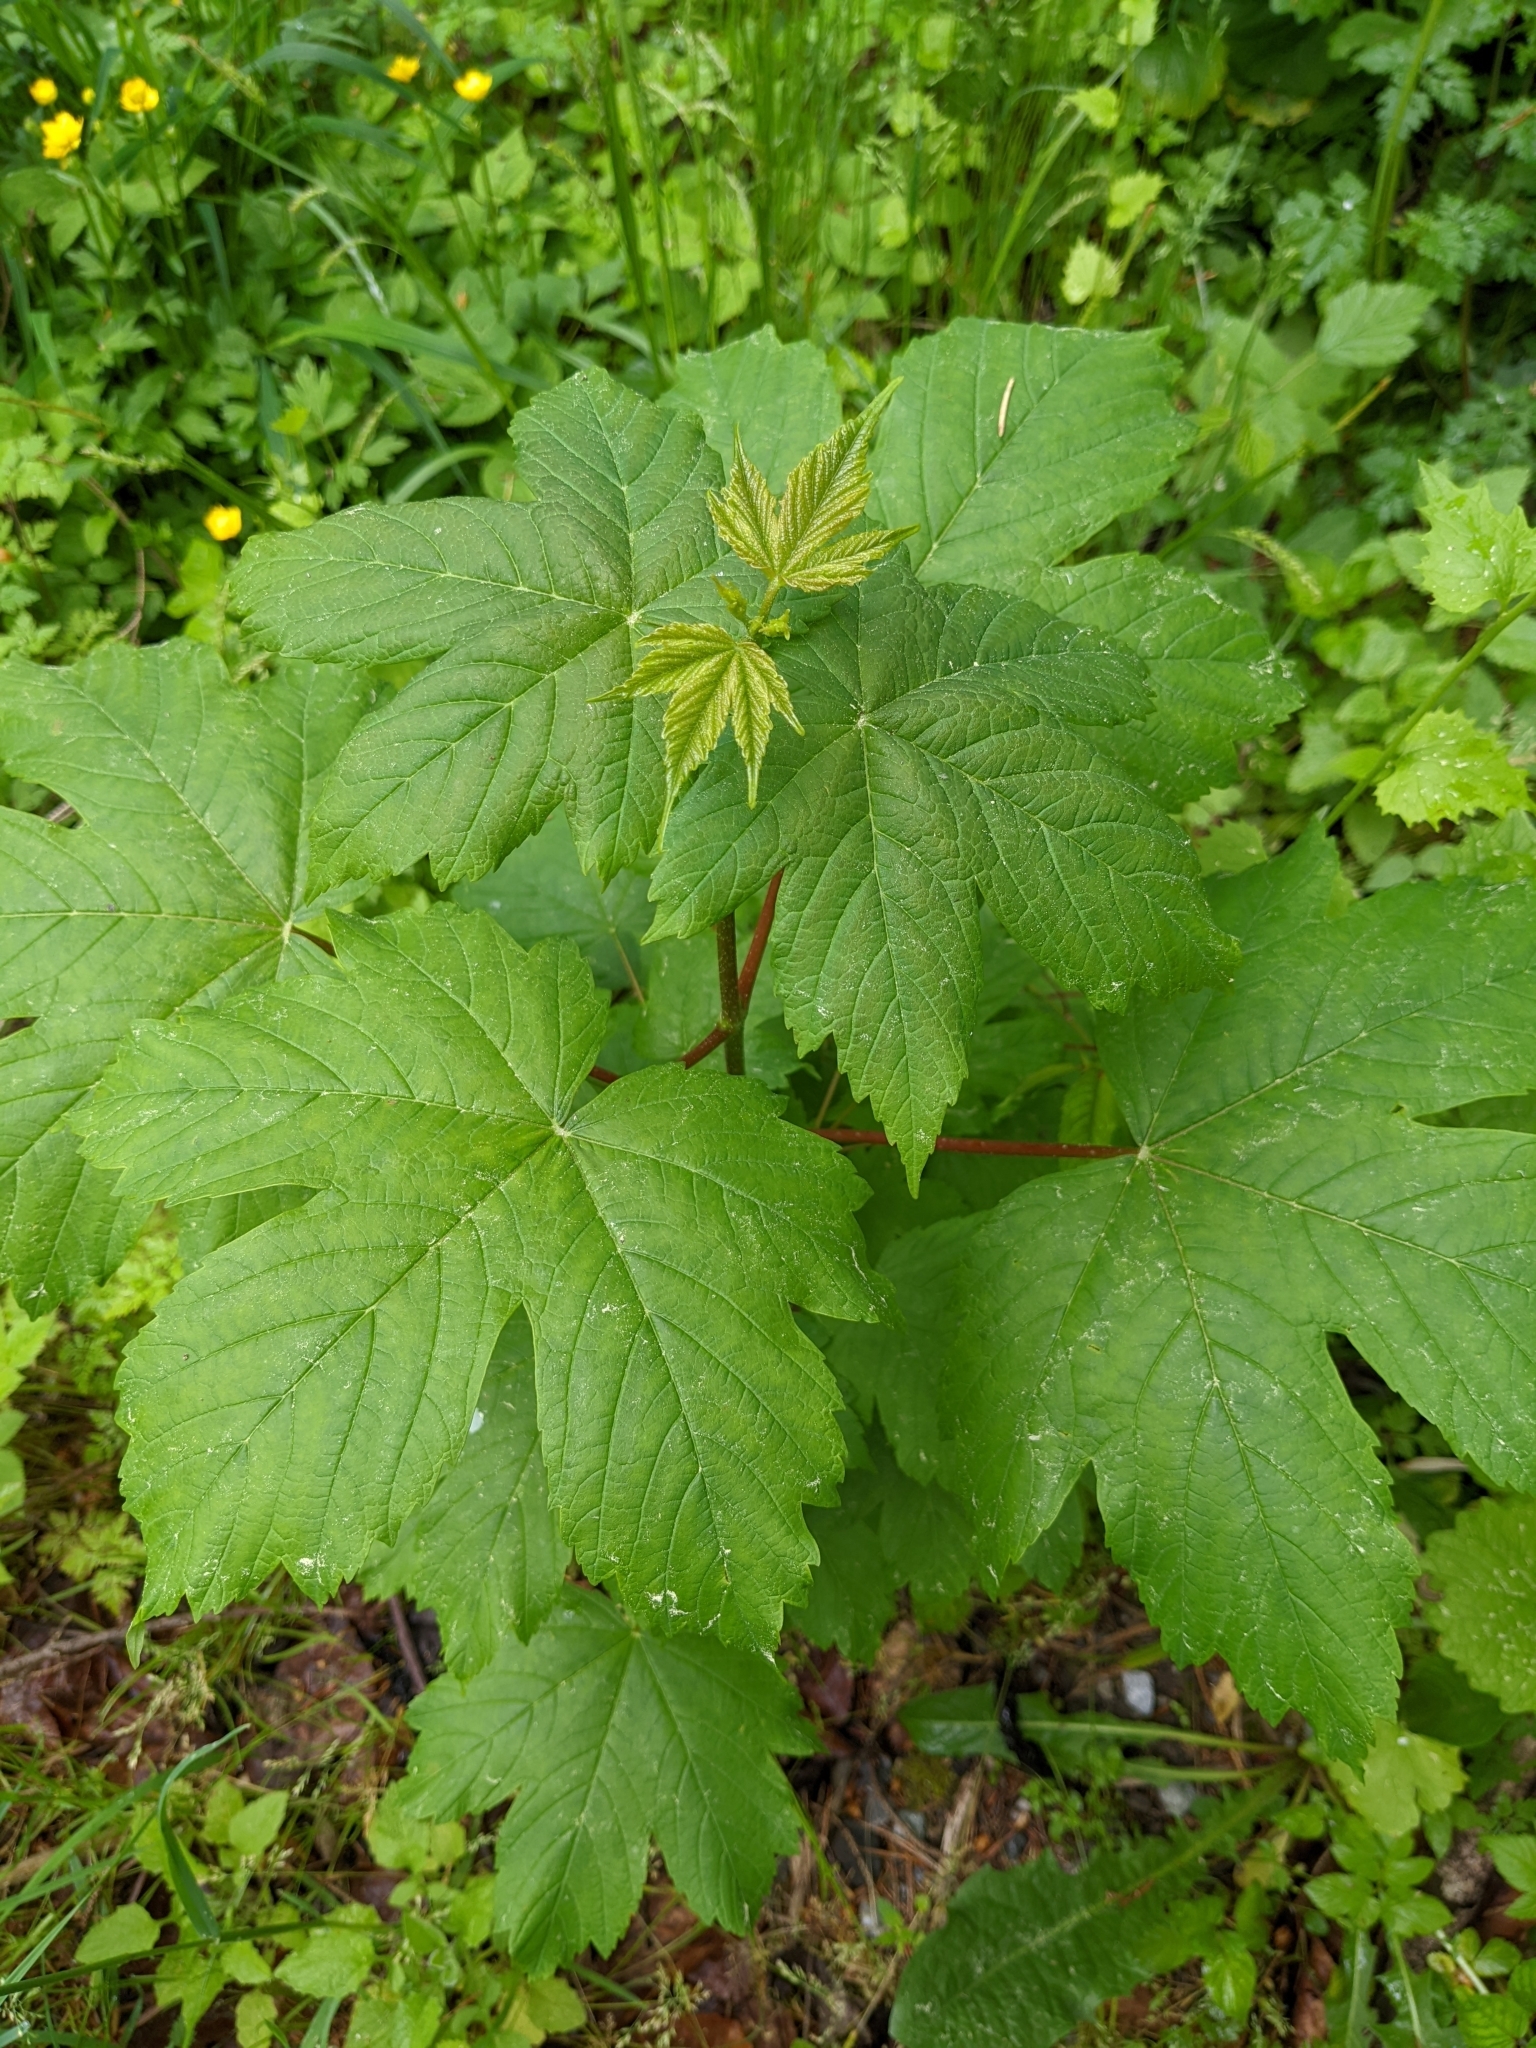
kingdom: Plantae
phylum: Tracheophyta
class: Magnoliopsida
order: Sapindales
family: Sapindaceae
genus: Acer
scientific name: Acer pseudoplatanus
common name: Sycamore
